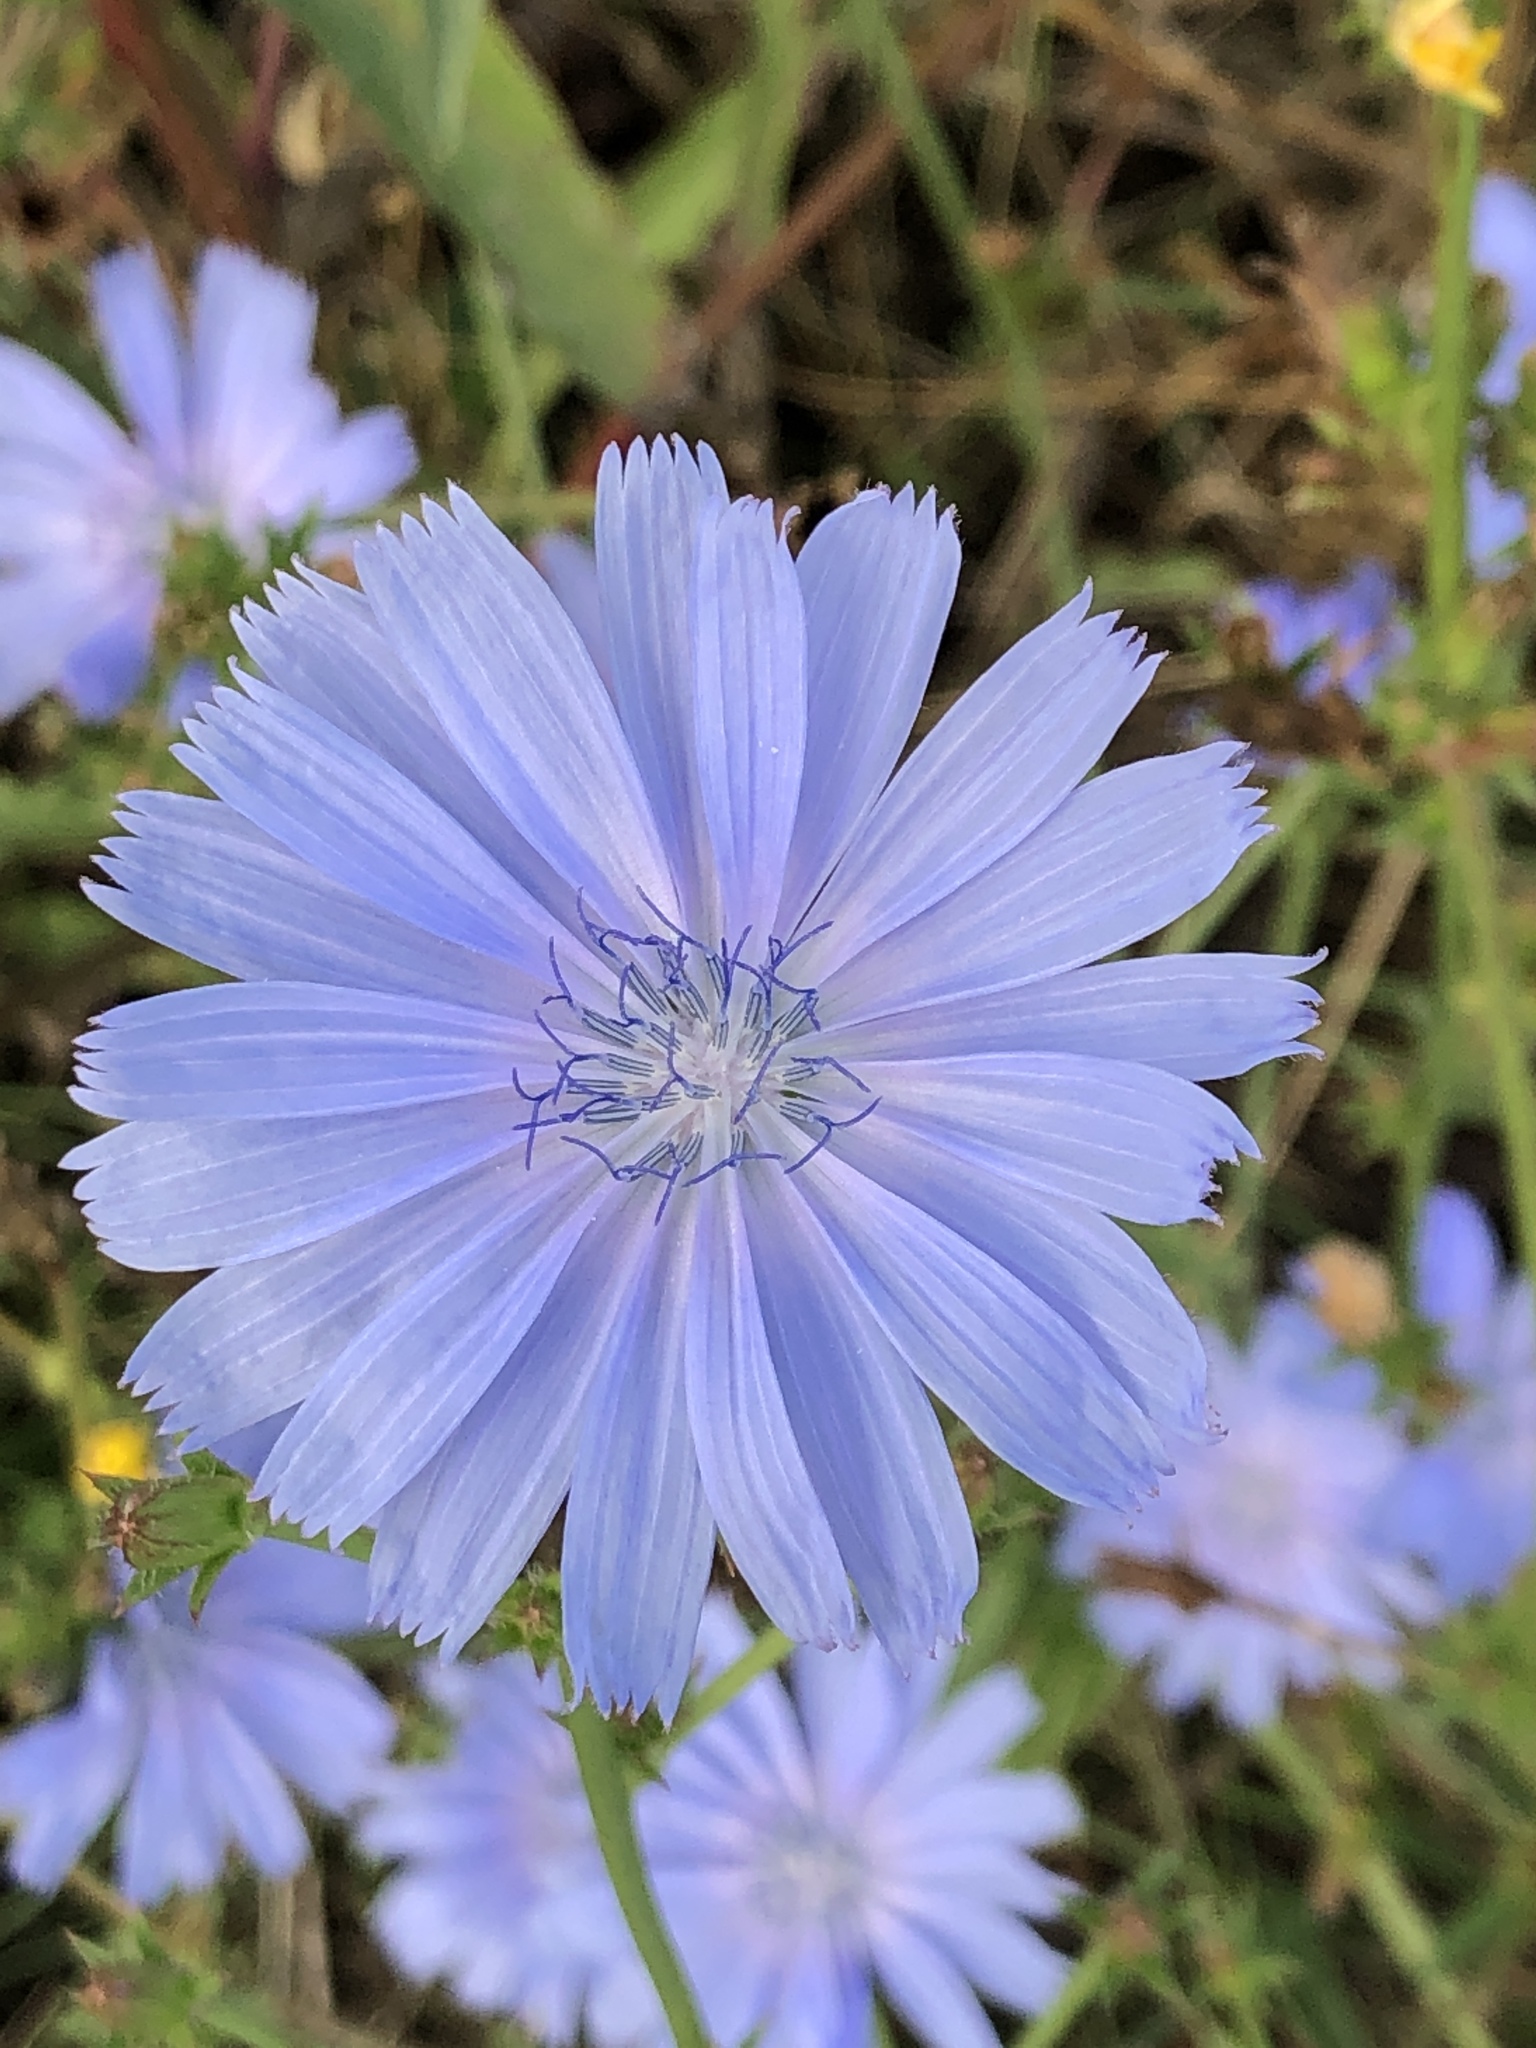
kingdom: Plantae
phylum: Tracheophyta
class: Magnoliopsida
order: Asterales
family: Asteraceae
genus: Cichorium
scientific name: Cichorium intybus
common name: Chicory
